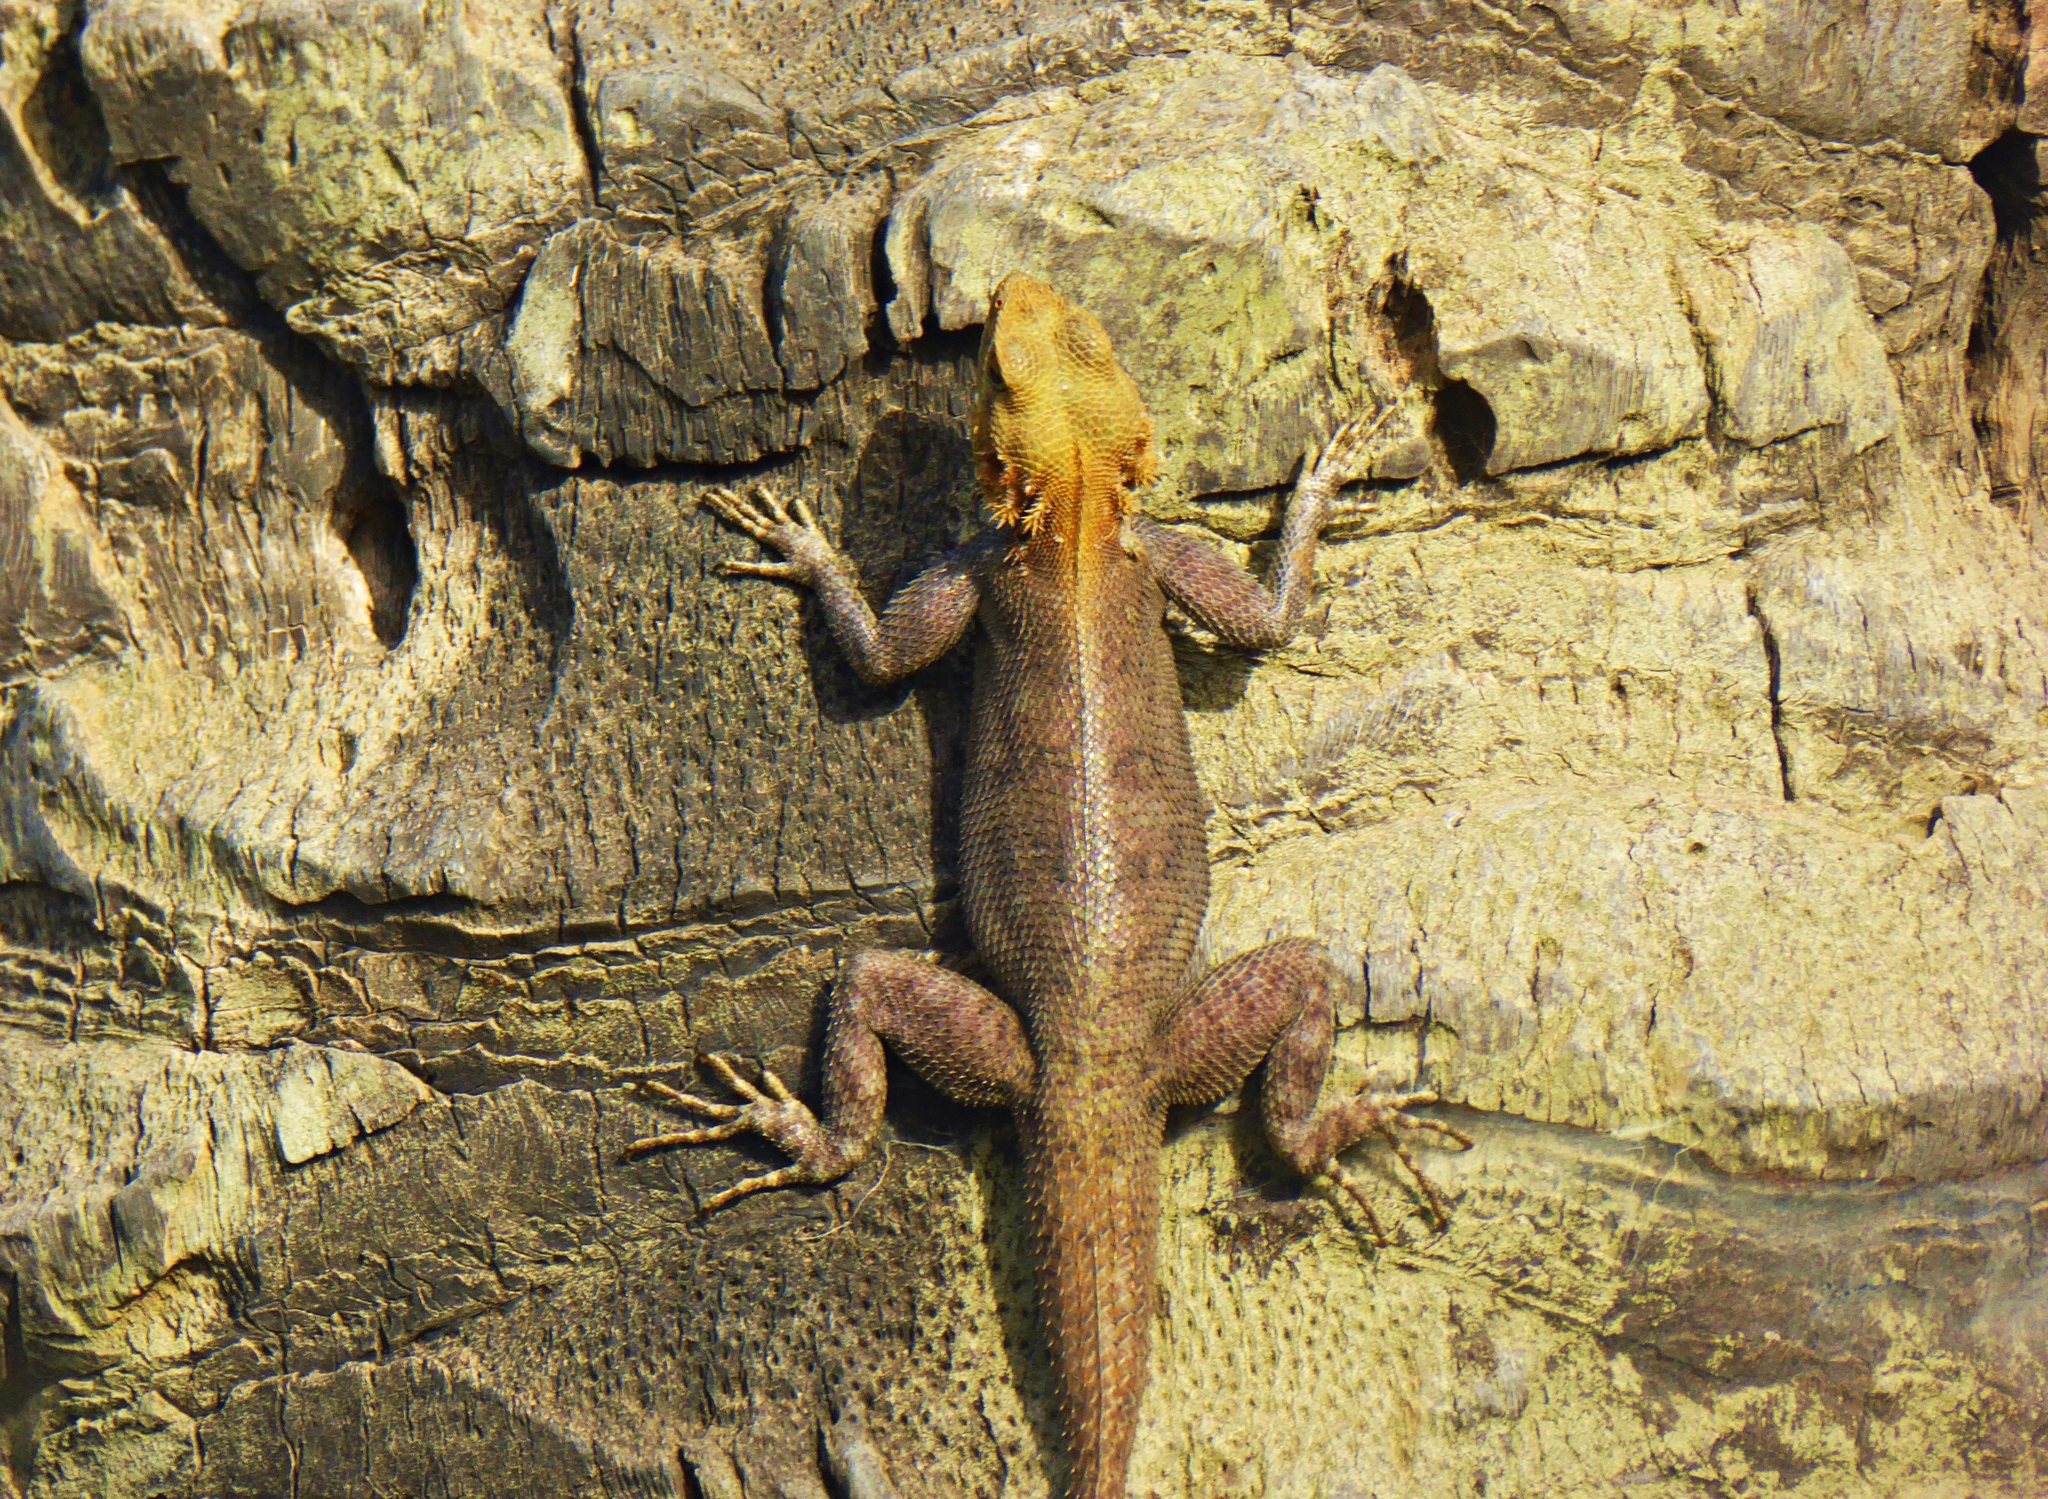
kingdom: Animalia
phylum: Chordata
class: Squamata
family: Agamidae
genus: Agama
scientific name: Agama agama
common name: Common agama
